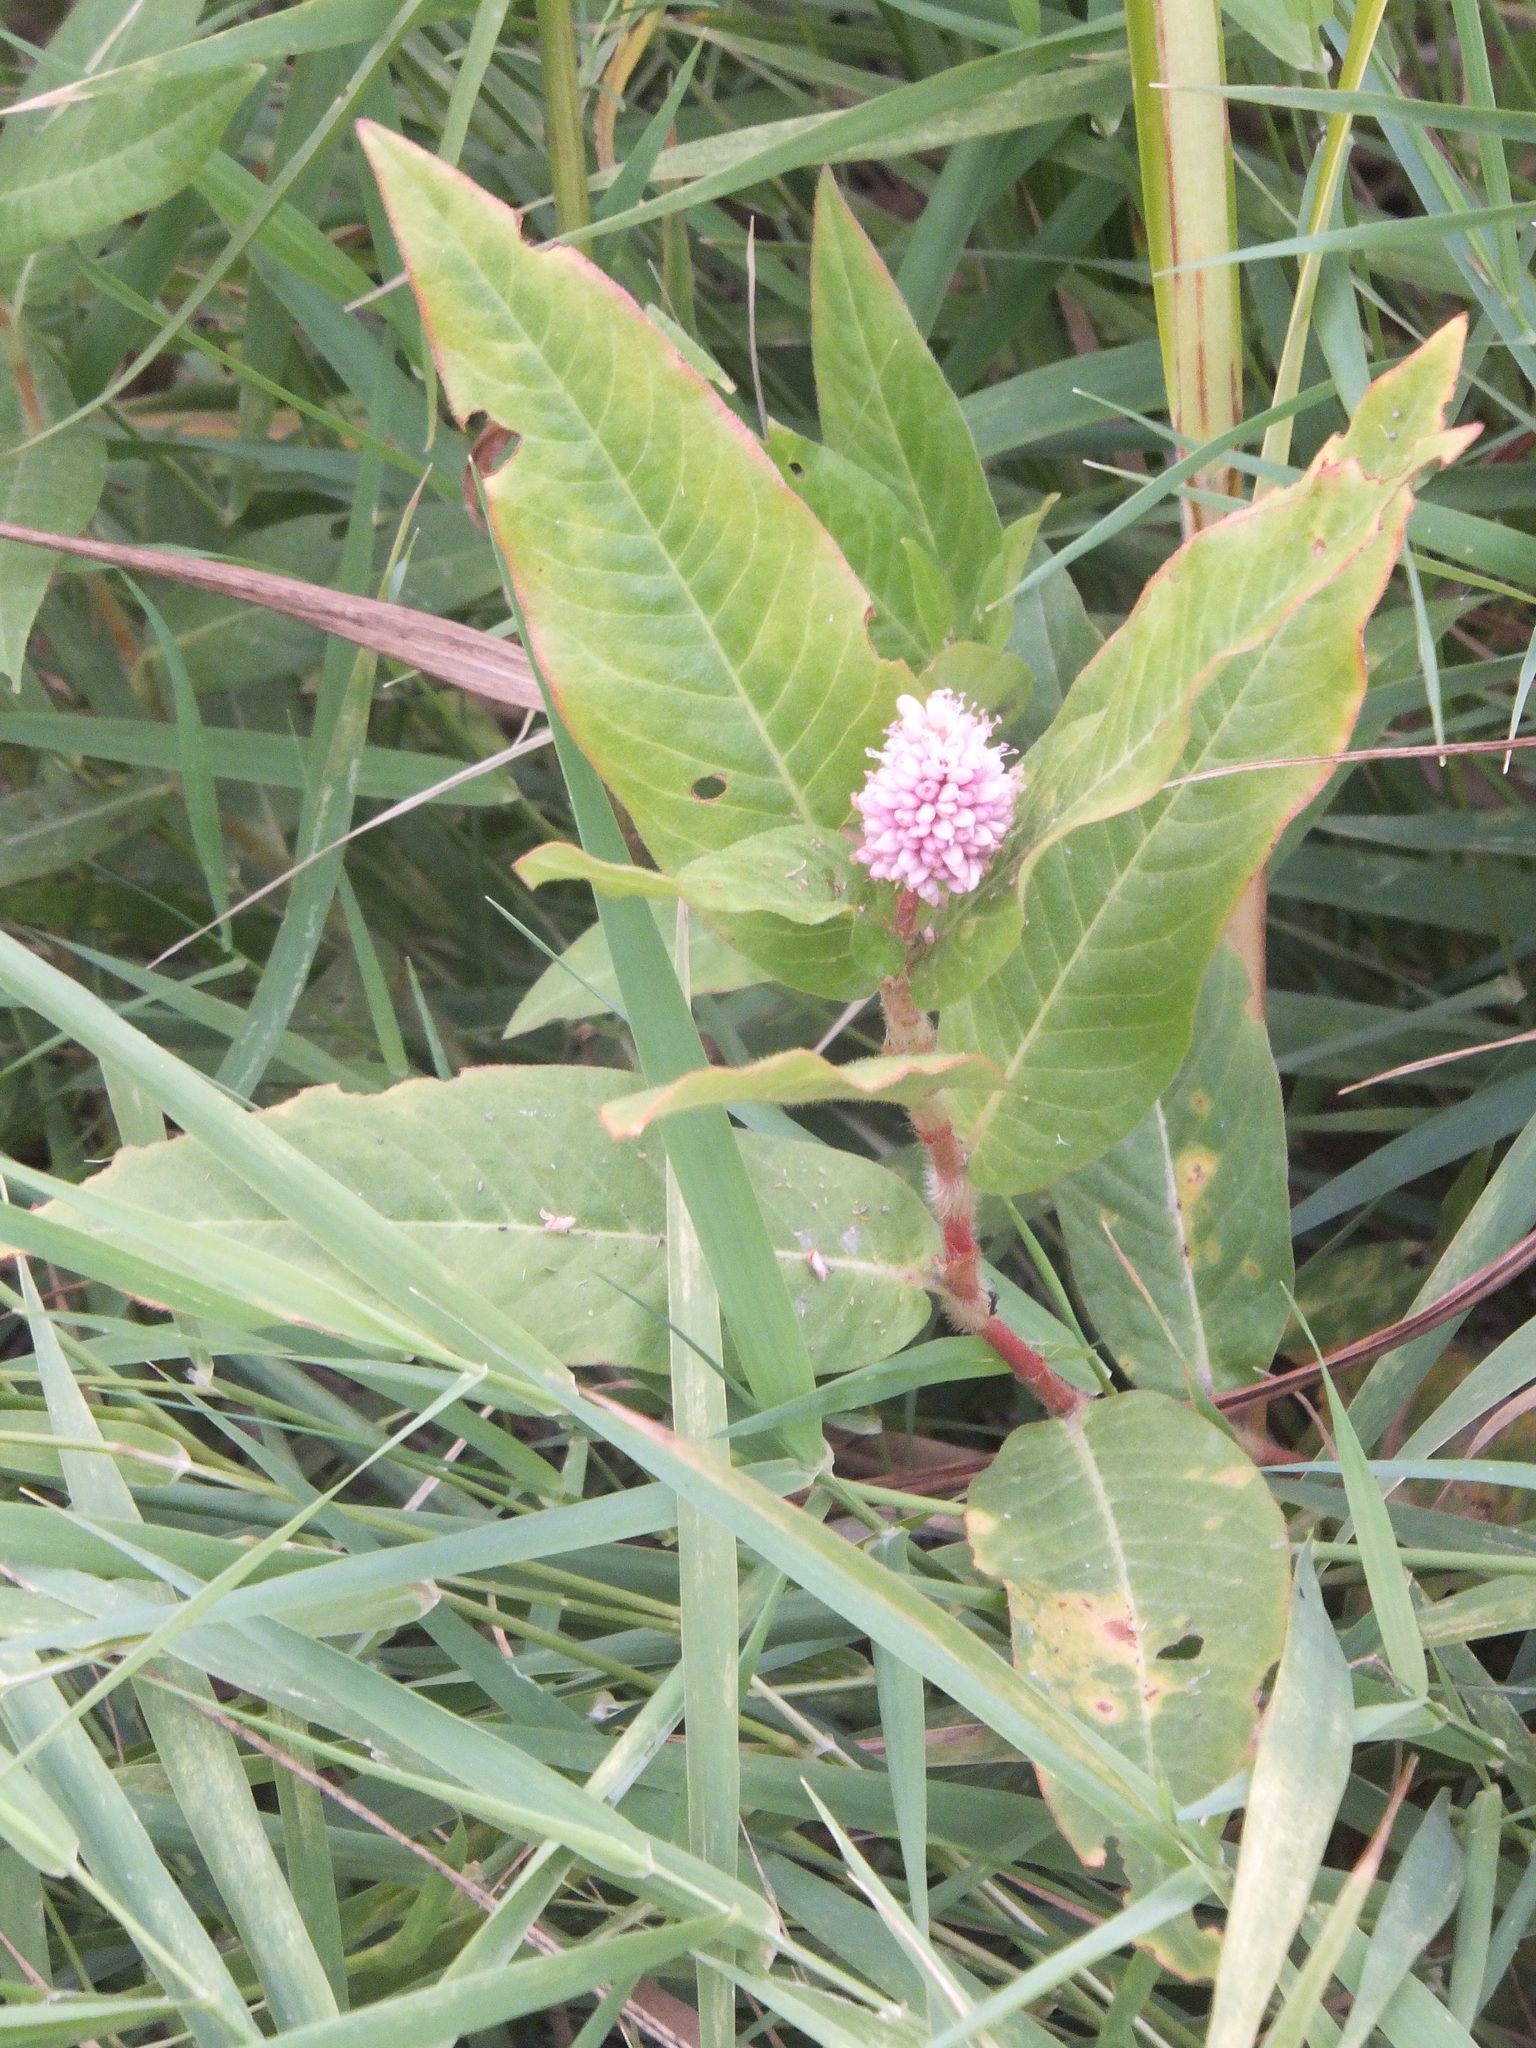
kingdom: Plantae
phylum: Tracheophyta
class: Magnoliopsida
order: Caryophyllales
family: Polygonaceae
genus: Persicaria
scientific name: Persicaria amphibia
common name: Amphibious bistort
